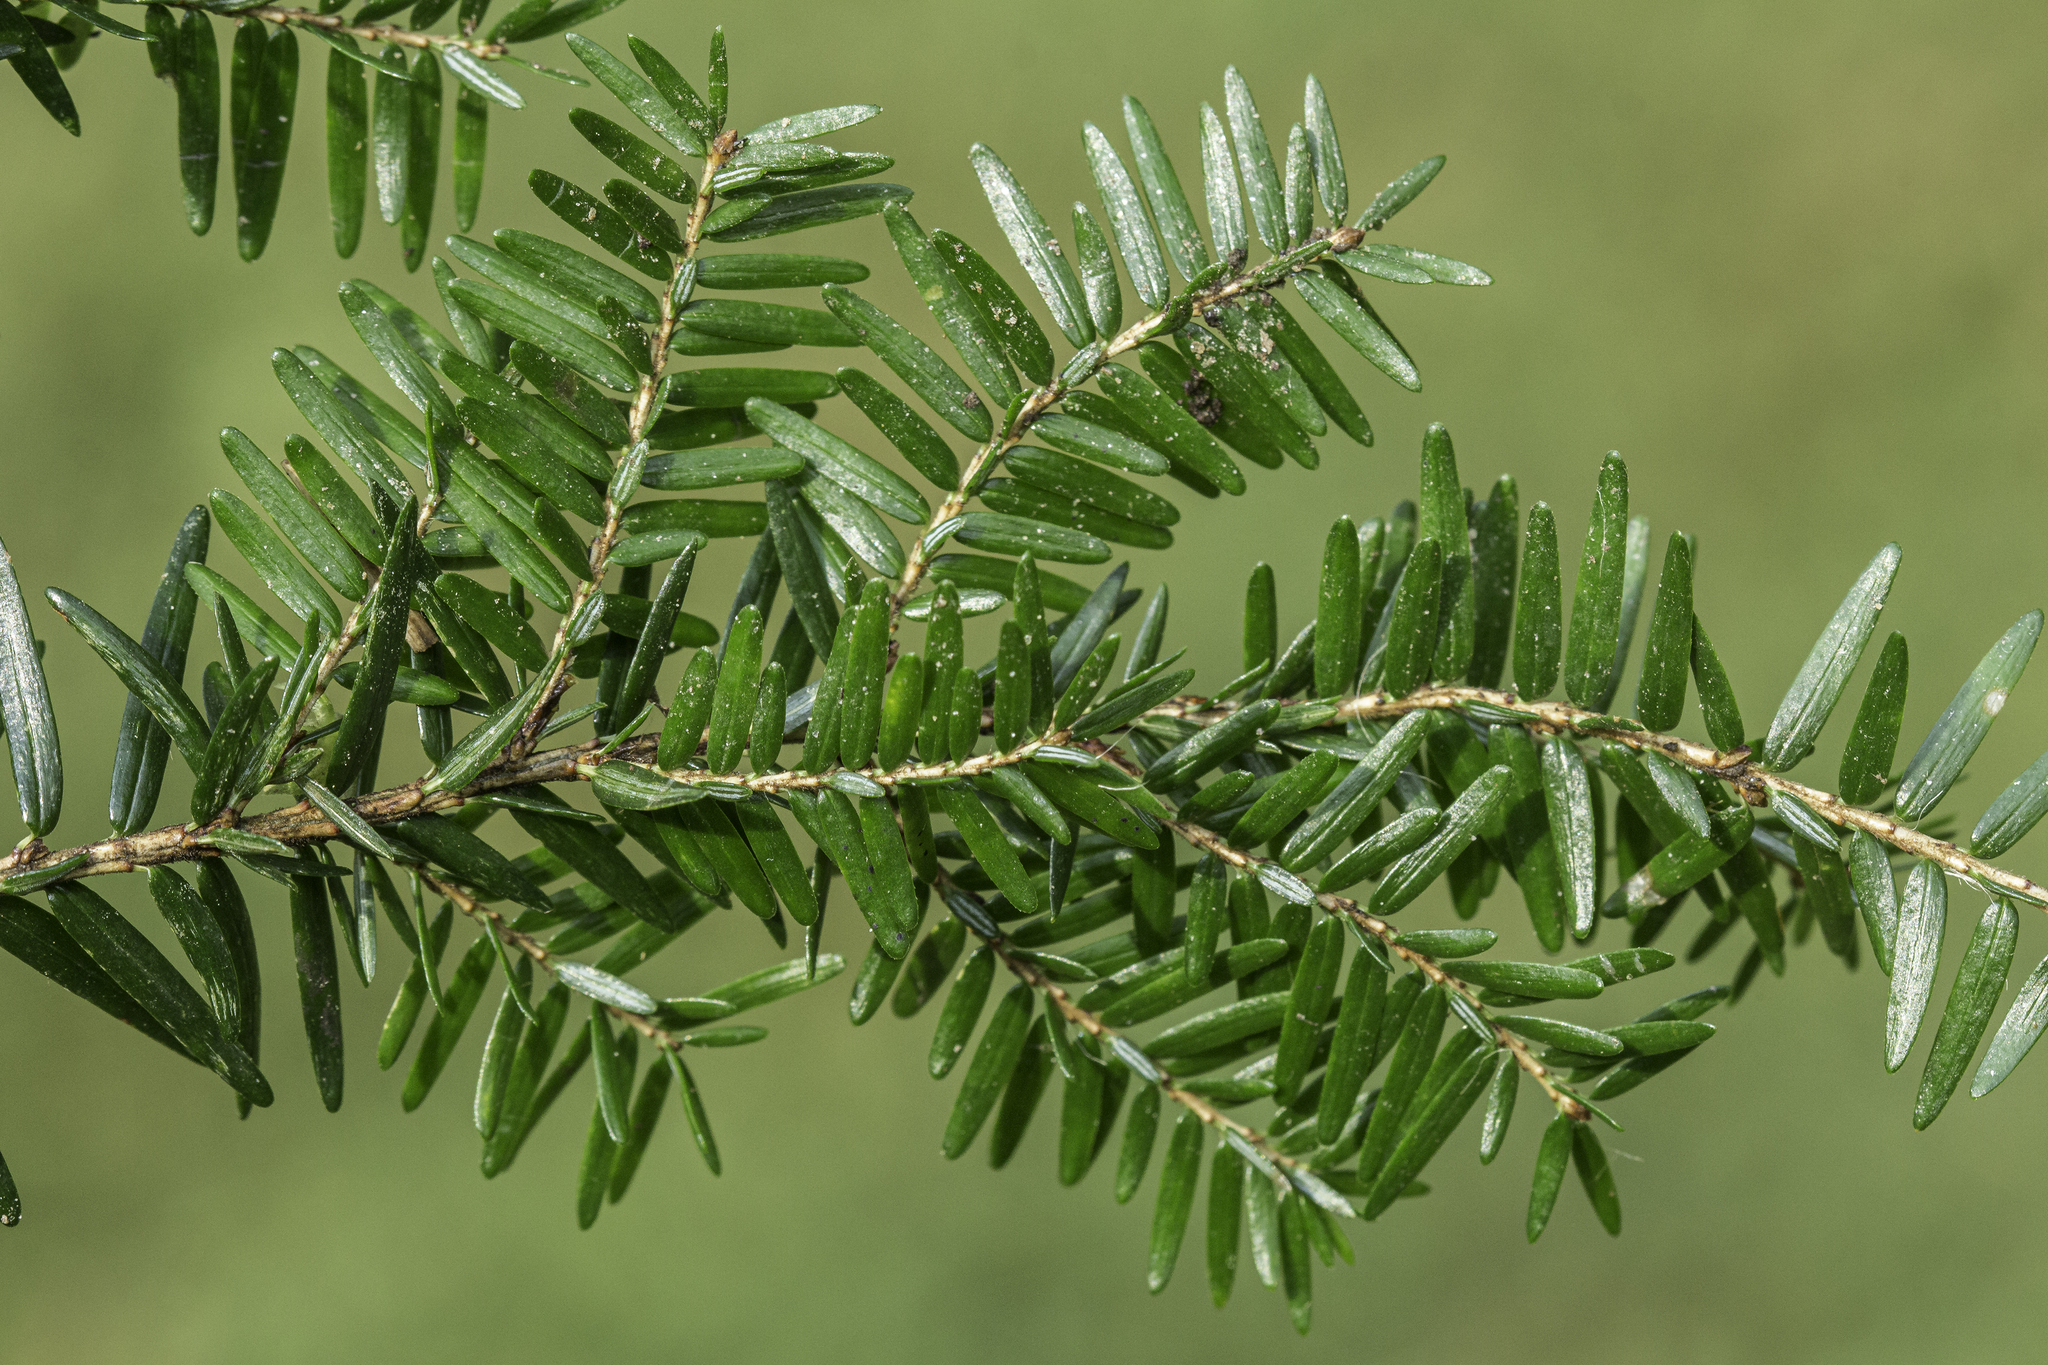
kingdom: Plantae
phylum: Tracheophyta
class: Pinopsida
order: Pinales
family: Pinaceae
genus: Tsuga
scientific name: Tsuga canadensis
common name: Eastern hemlock
